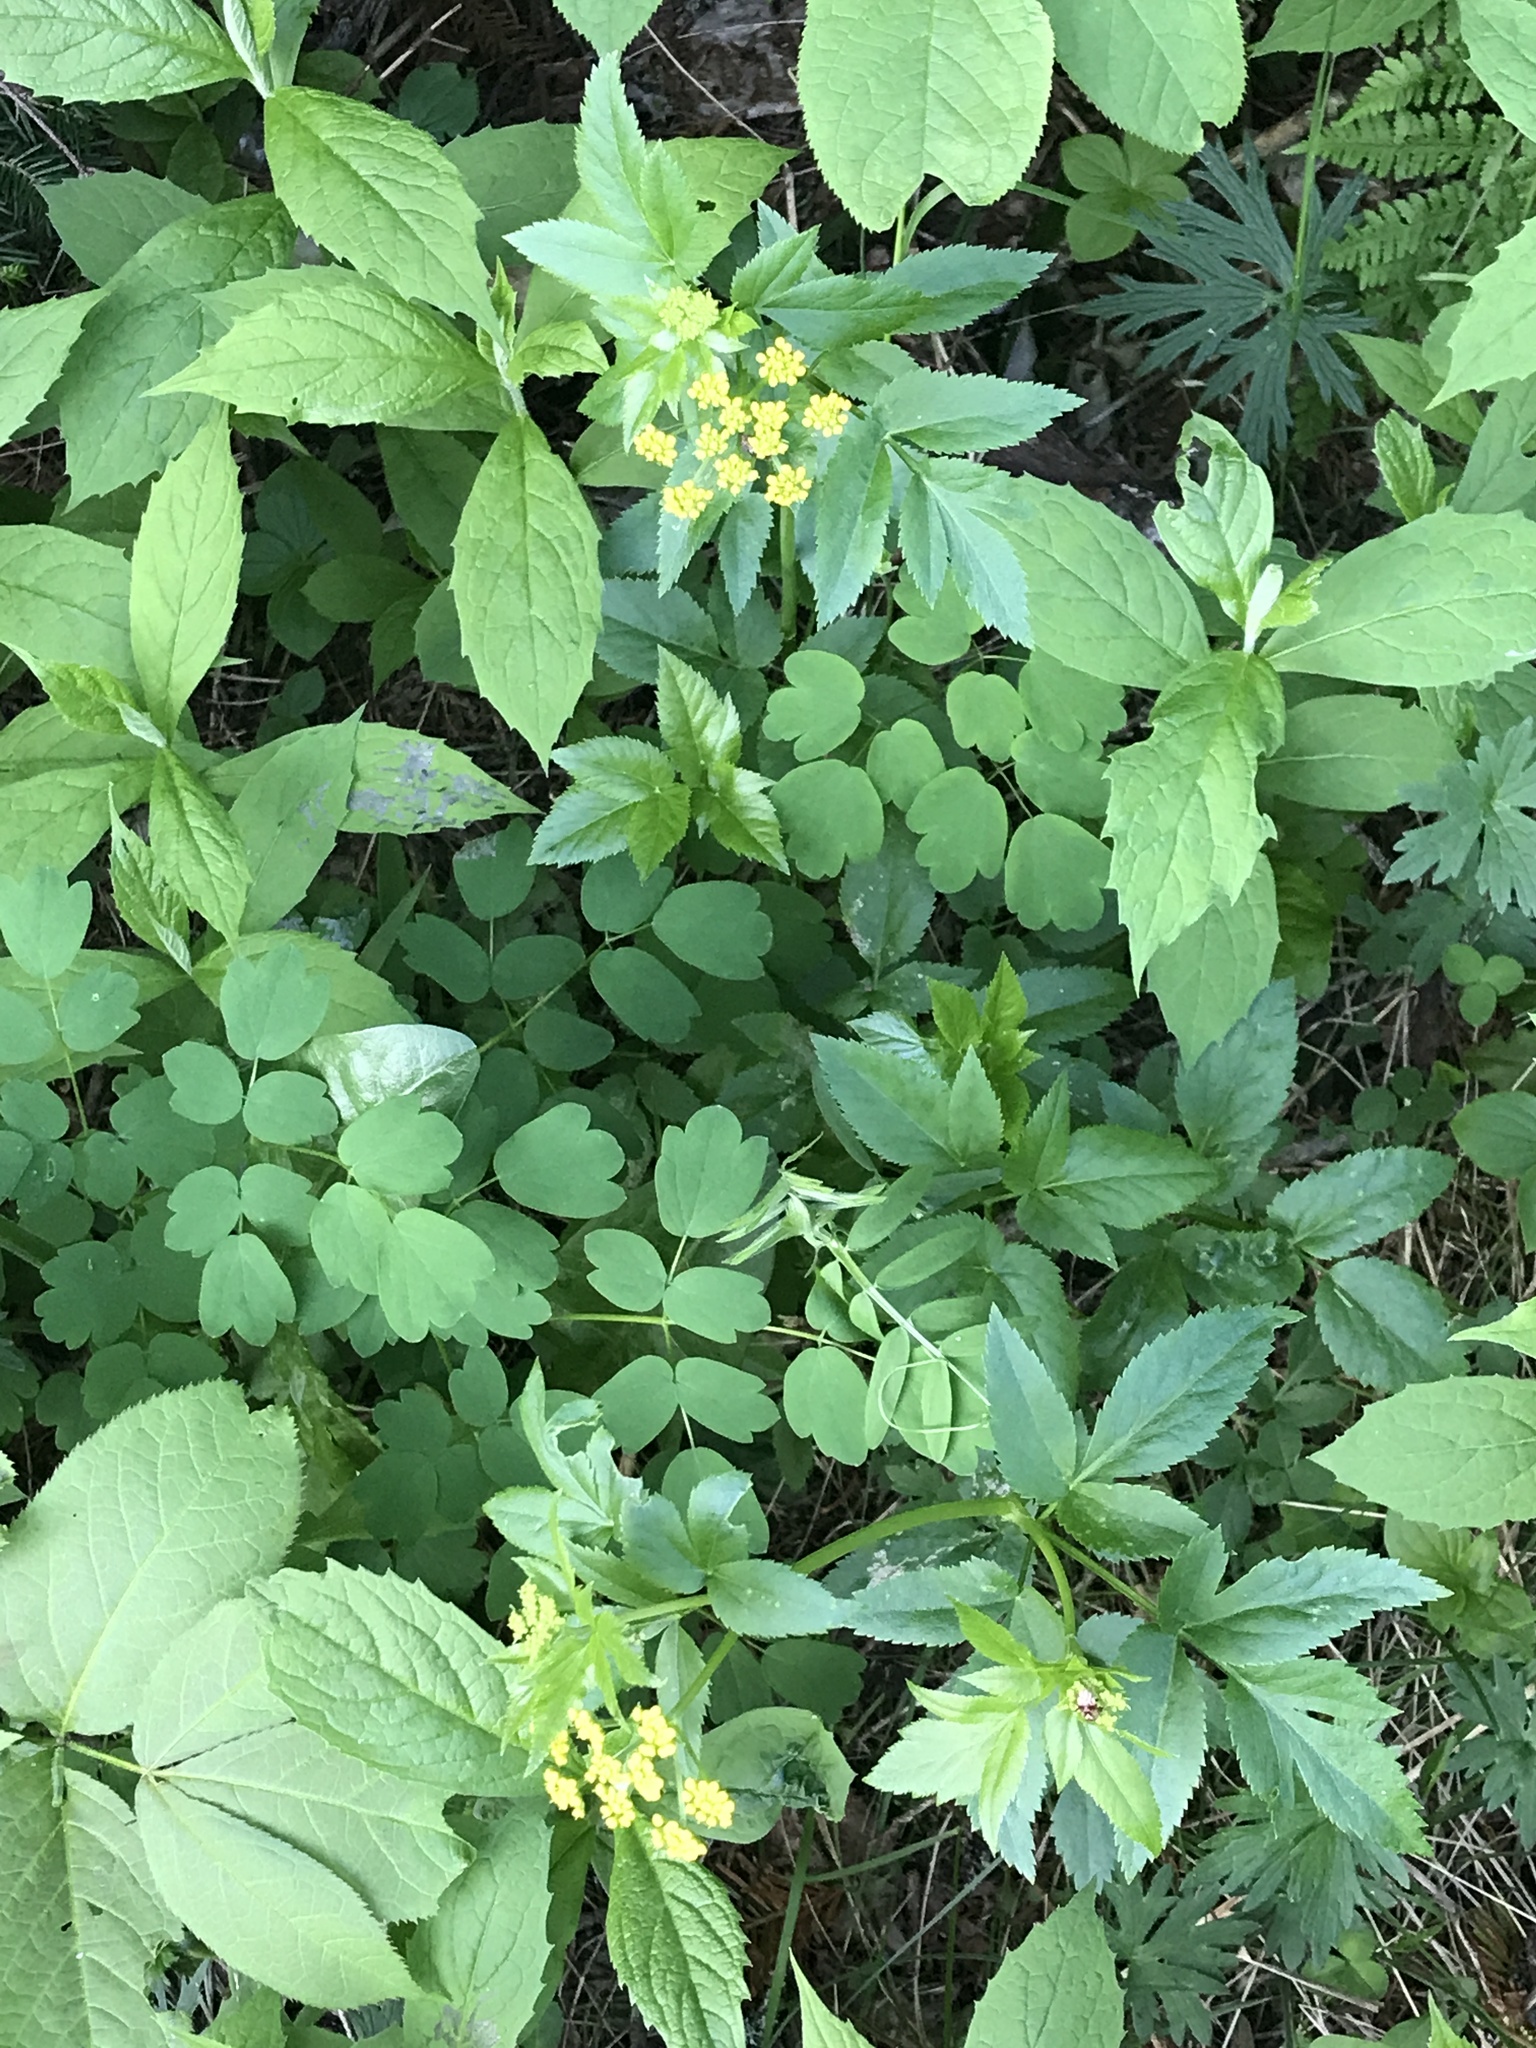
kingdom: Plantae
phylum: Tracheophyta
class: Magnoliopsida
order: Apiales
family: Apiaceae
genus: Zizia
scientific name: Zizia aurea
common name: Golden alexanders
